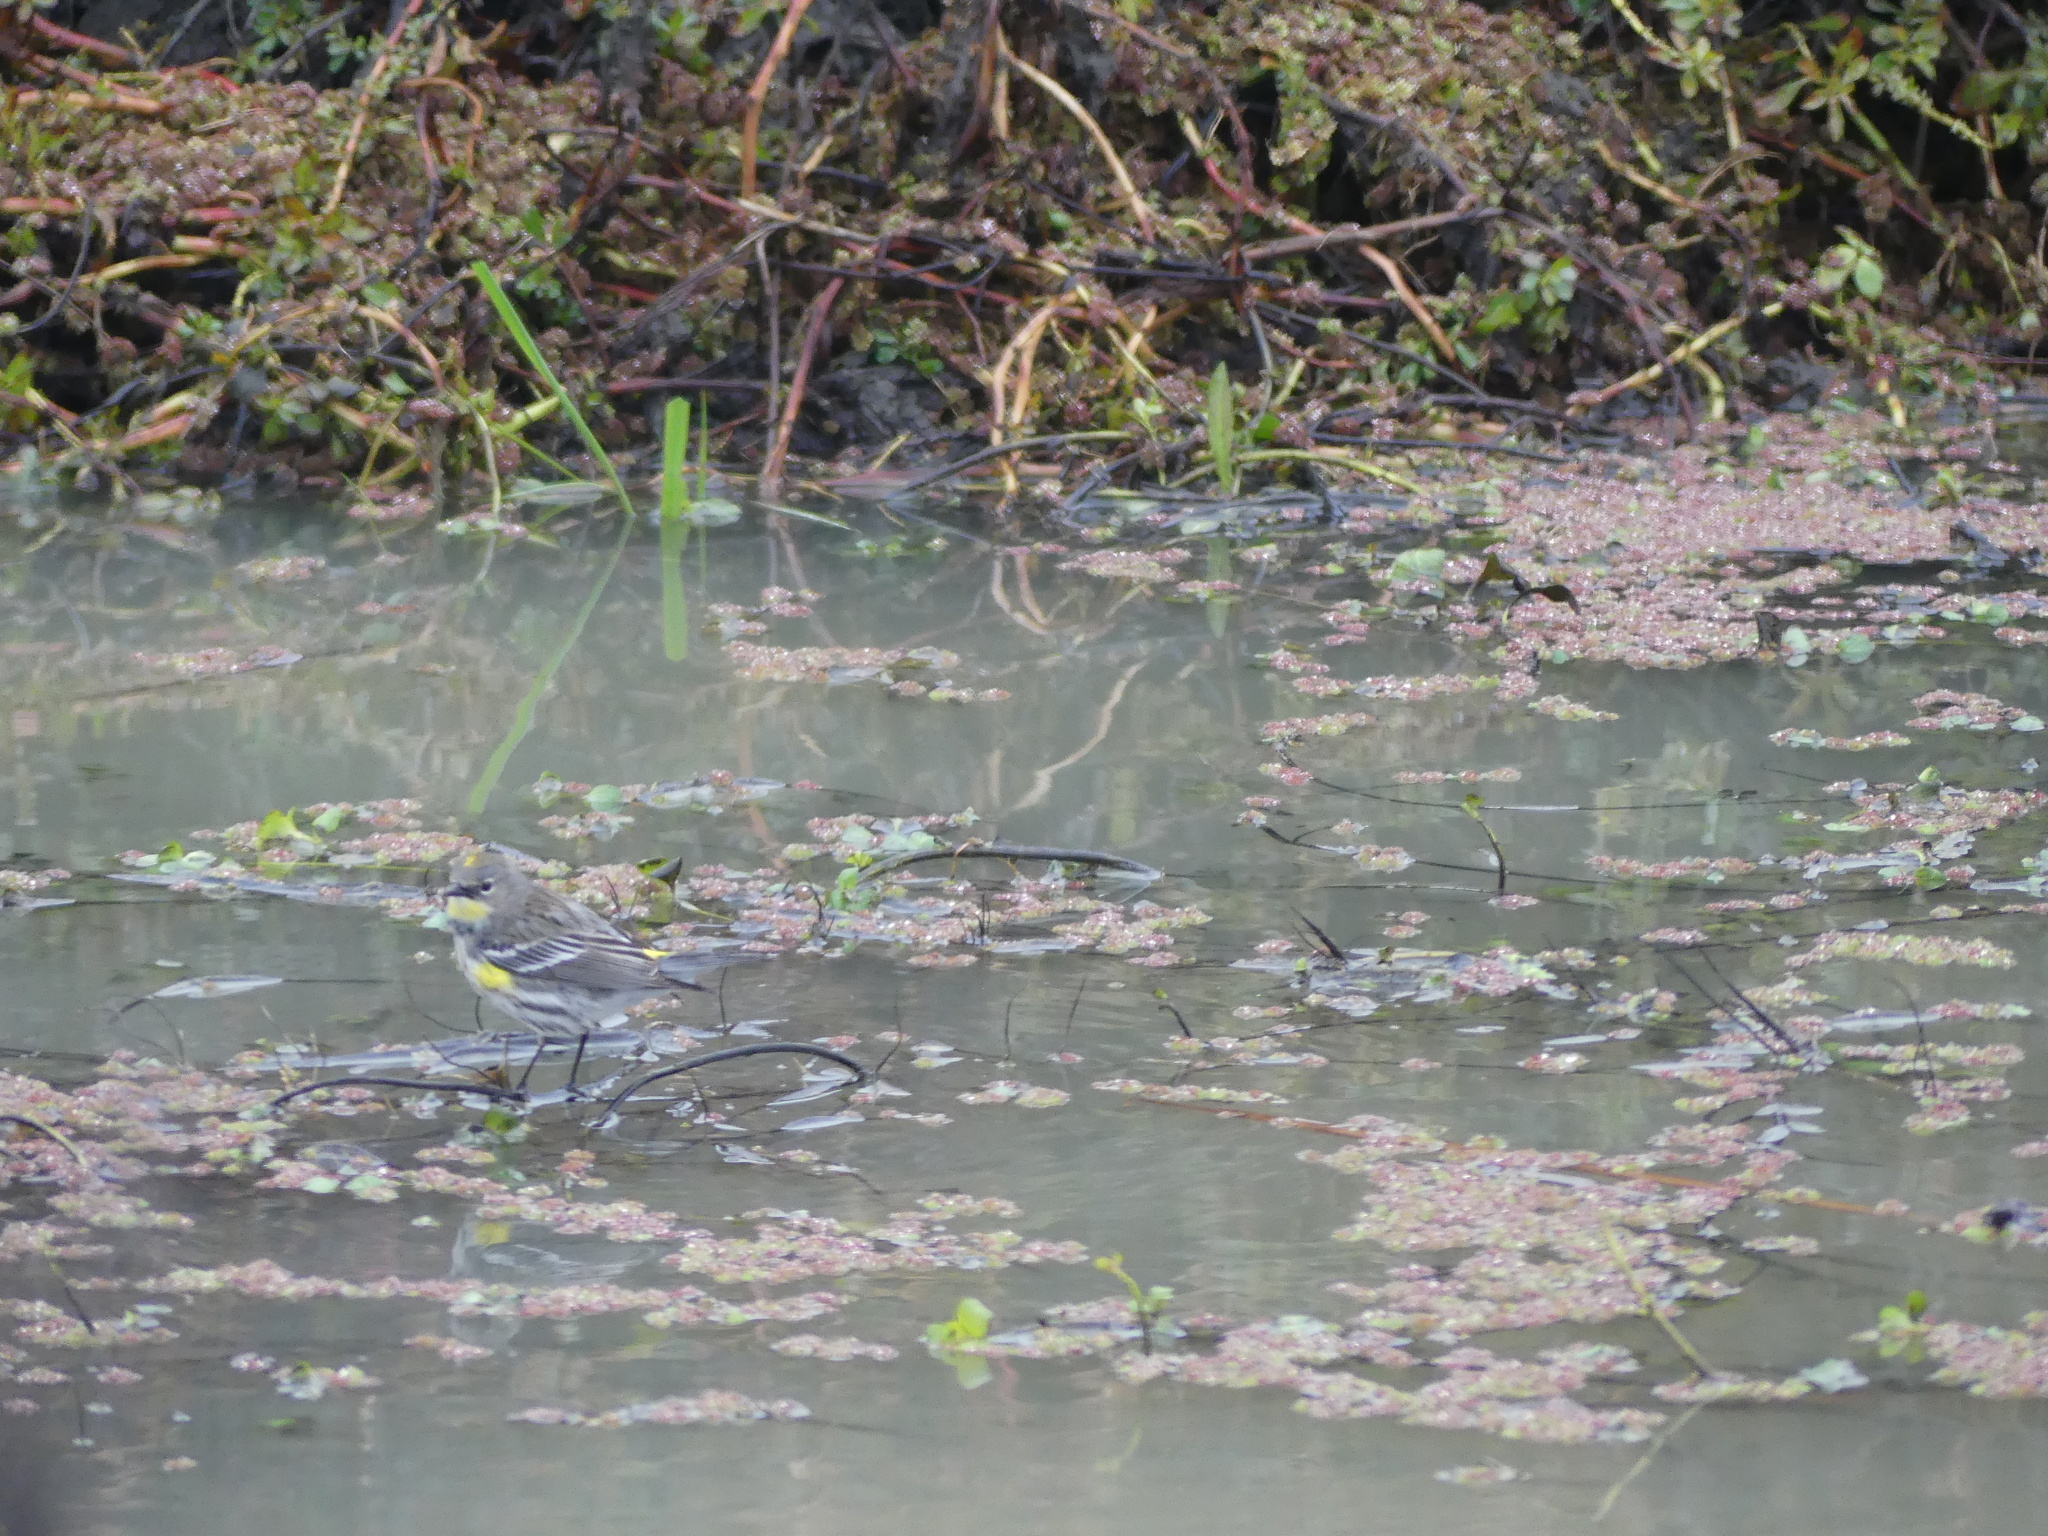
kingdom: Animalia
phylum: Chordata
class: Aves
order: Passeriformes
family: Parulidae
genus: Setophaga
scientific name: Setophaga coronata
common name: Myrtle warbler
